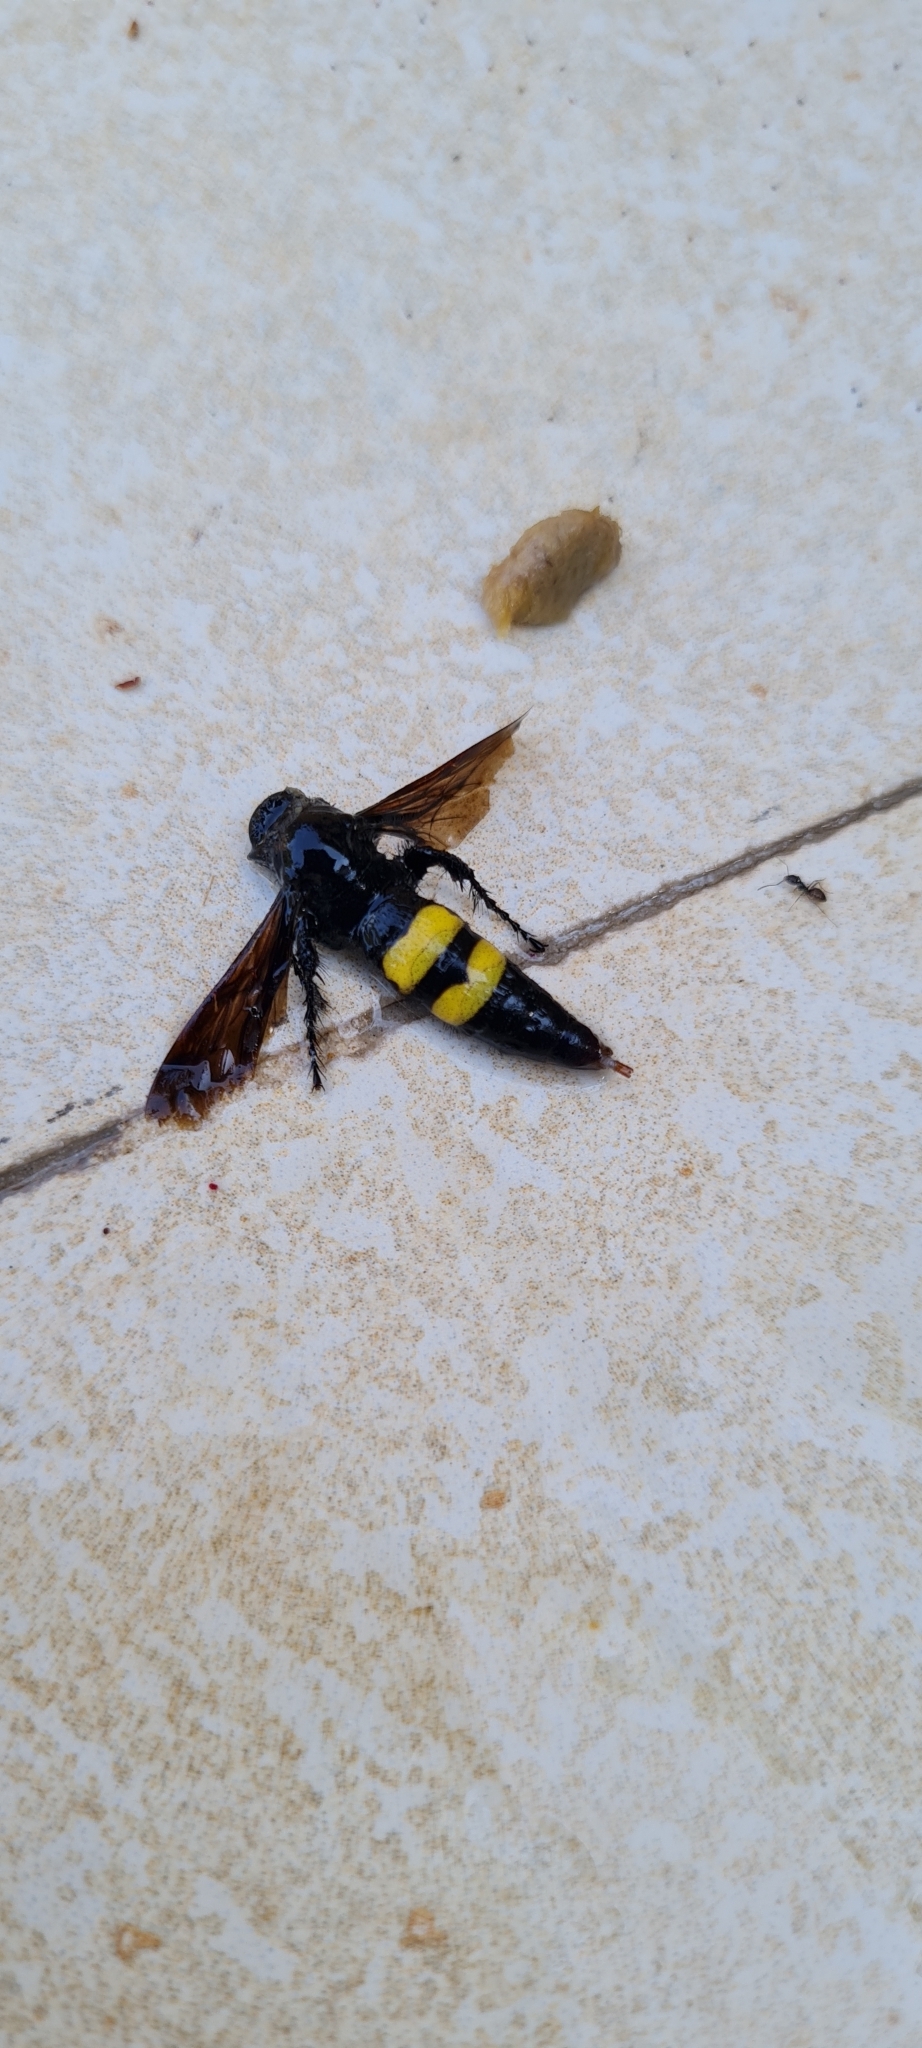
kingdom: Animalia
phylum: Arthropoda
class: Insecta
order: Hymenoptera
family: Scoliidae
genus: Scolia
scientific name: Scolia hirta
